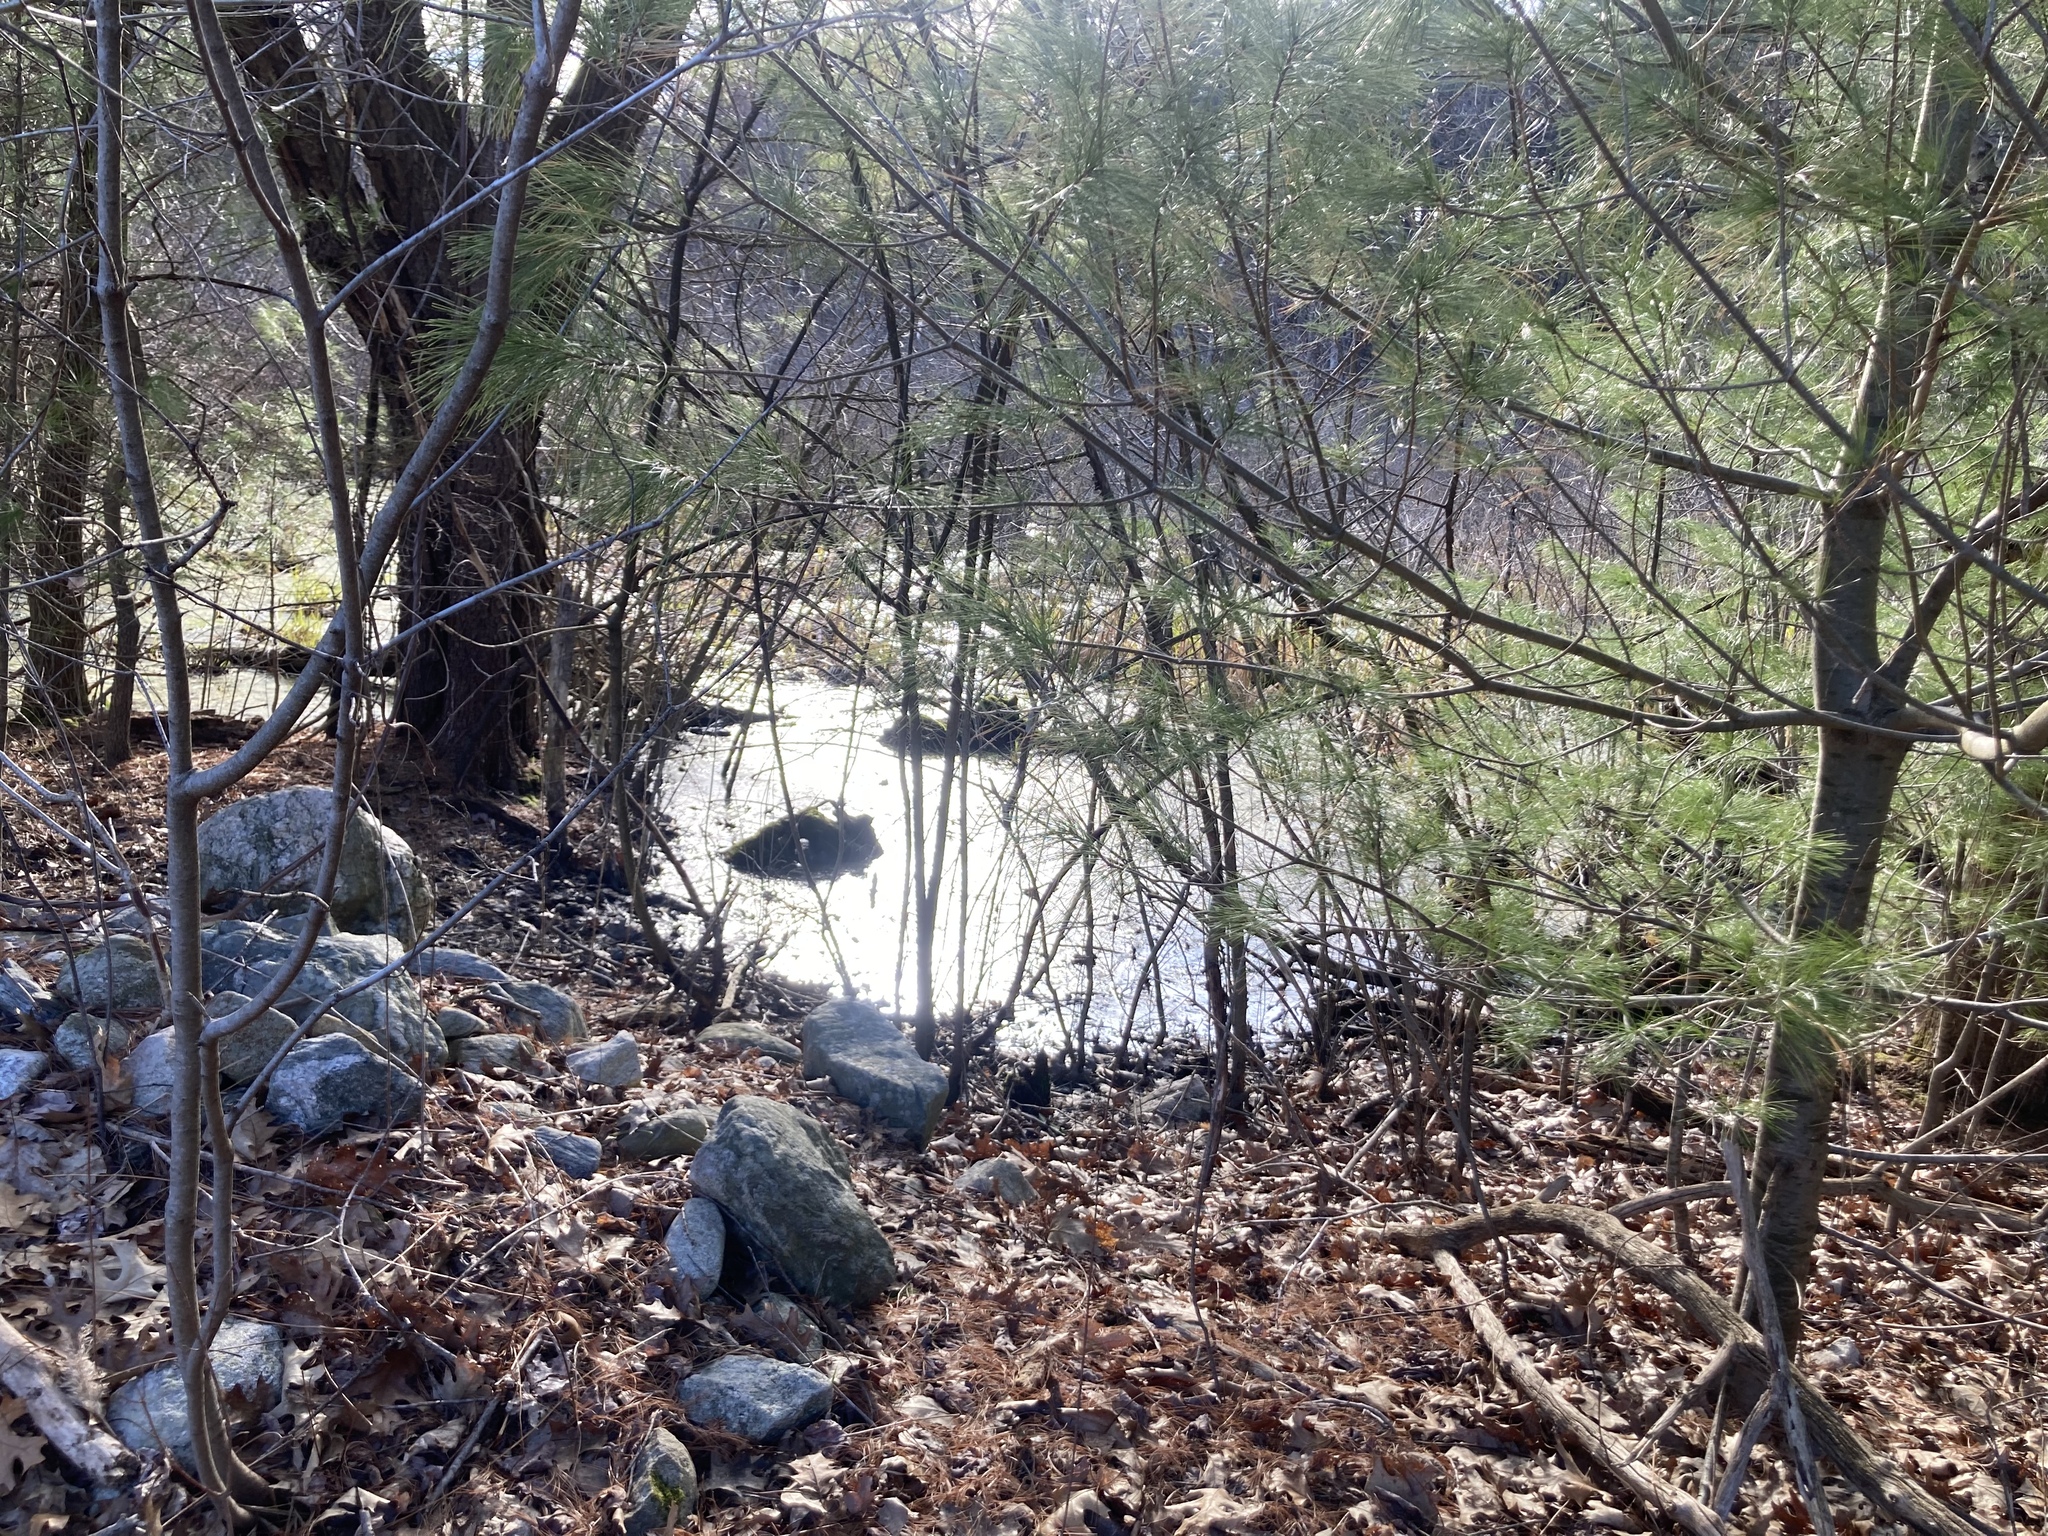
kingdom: Animalia
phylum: Chordata
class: Amphibia
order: Anura
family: Hylidae
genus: Pseudacris
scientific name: Pseudacris crucifer
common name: Spring peeper
